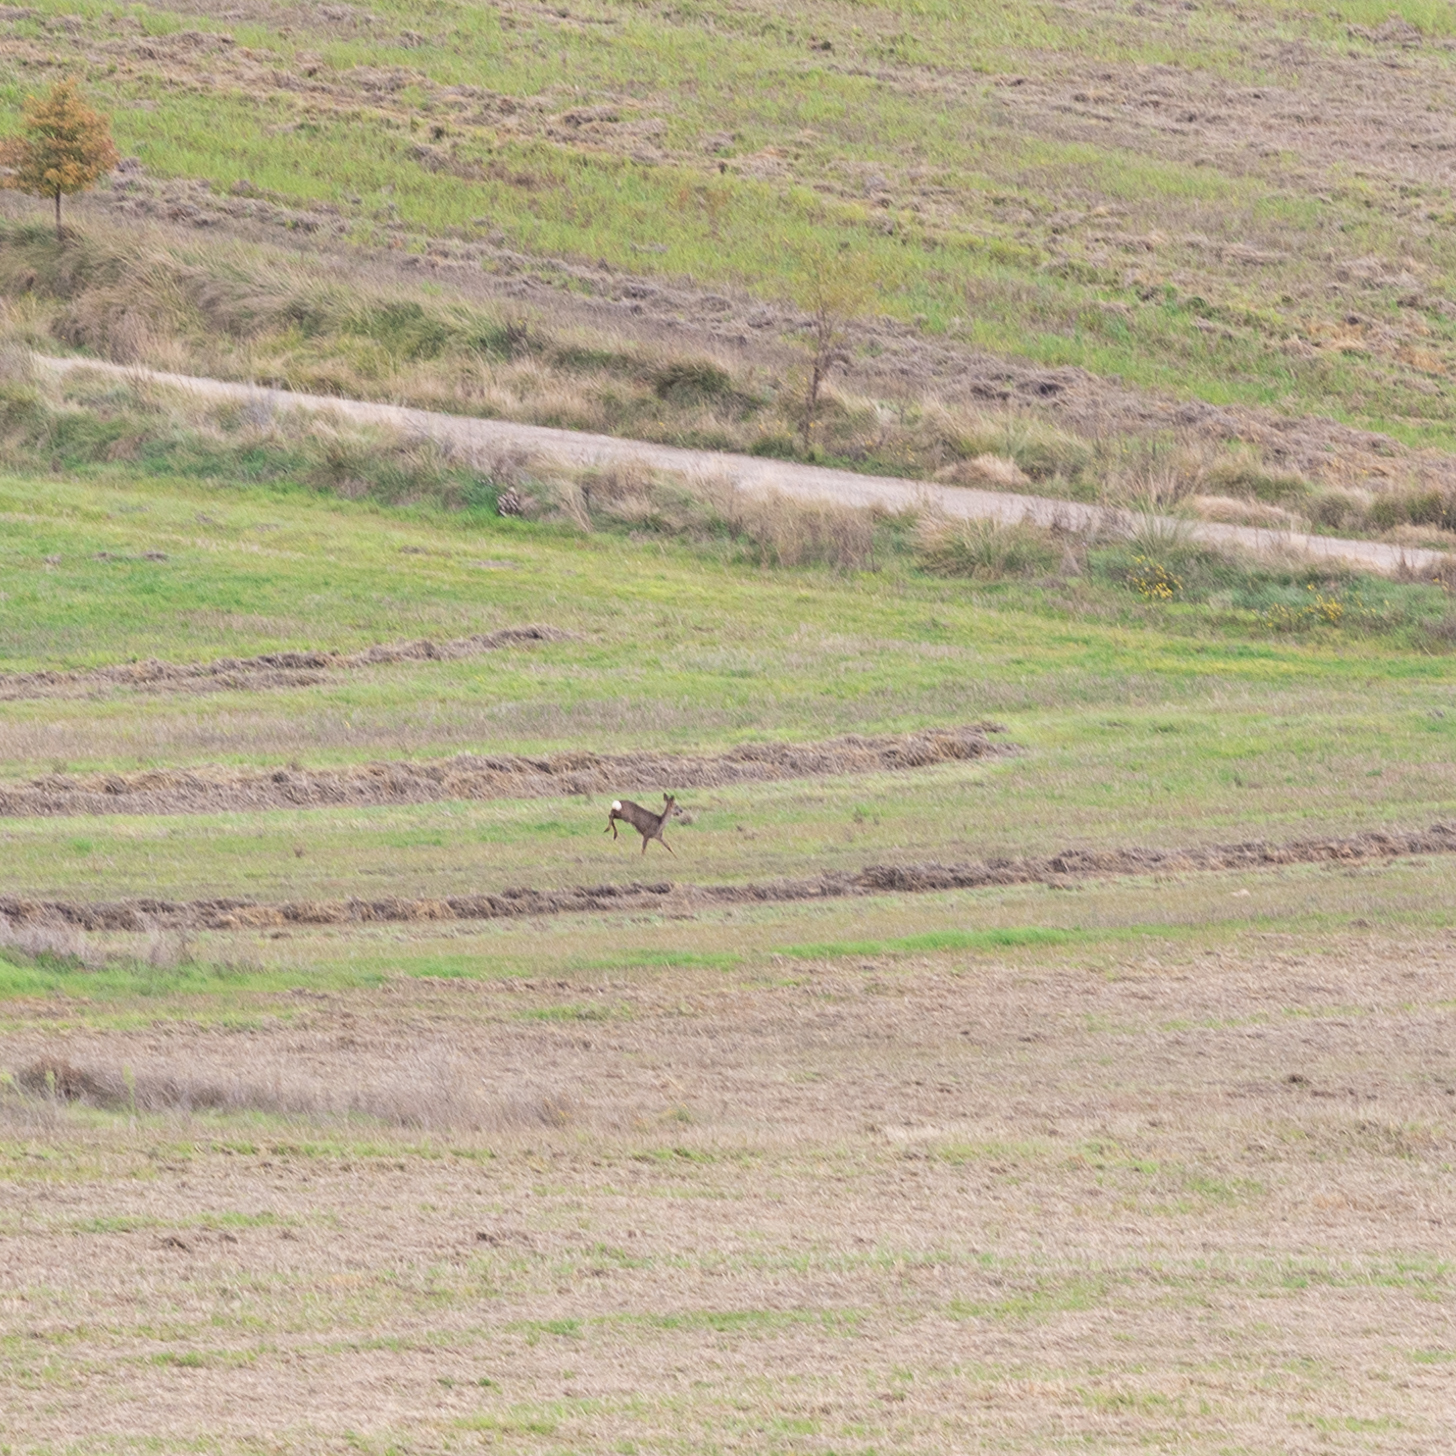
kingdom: Animalia
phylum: Chordata
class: Mammalia
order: Artiodactyla
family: Cervidae
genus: Capreolus
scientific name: Capreolus capreolus
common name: Western roe deer
